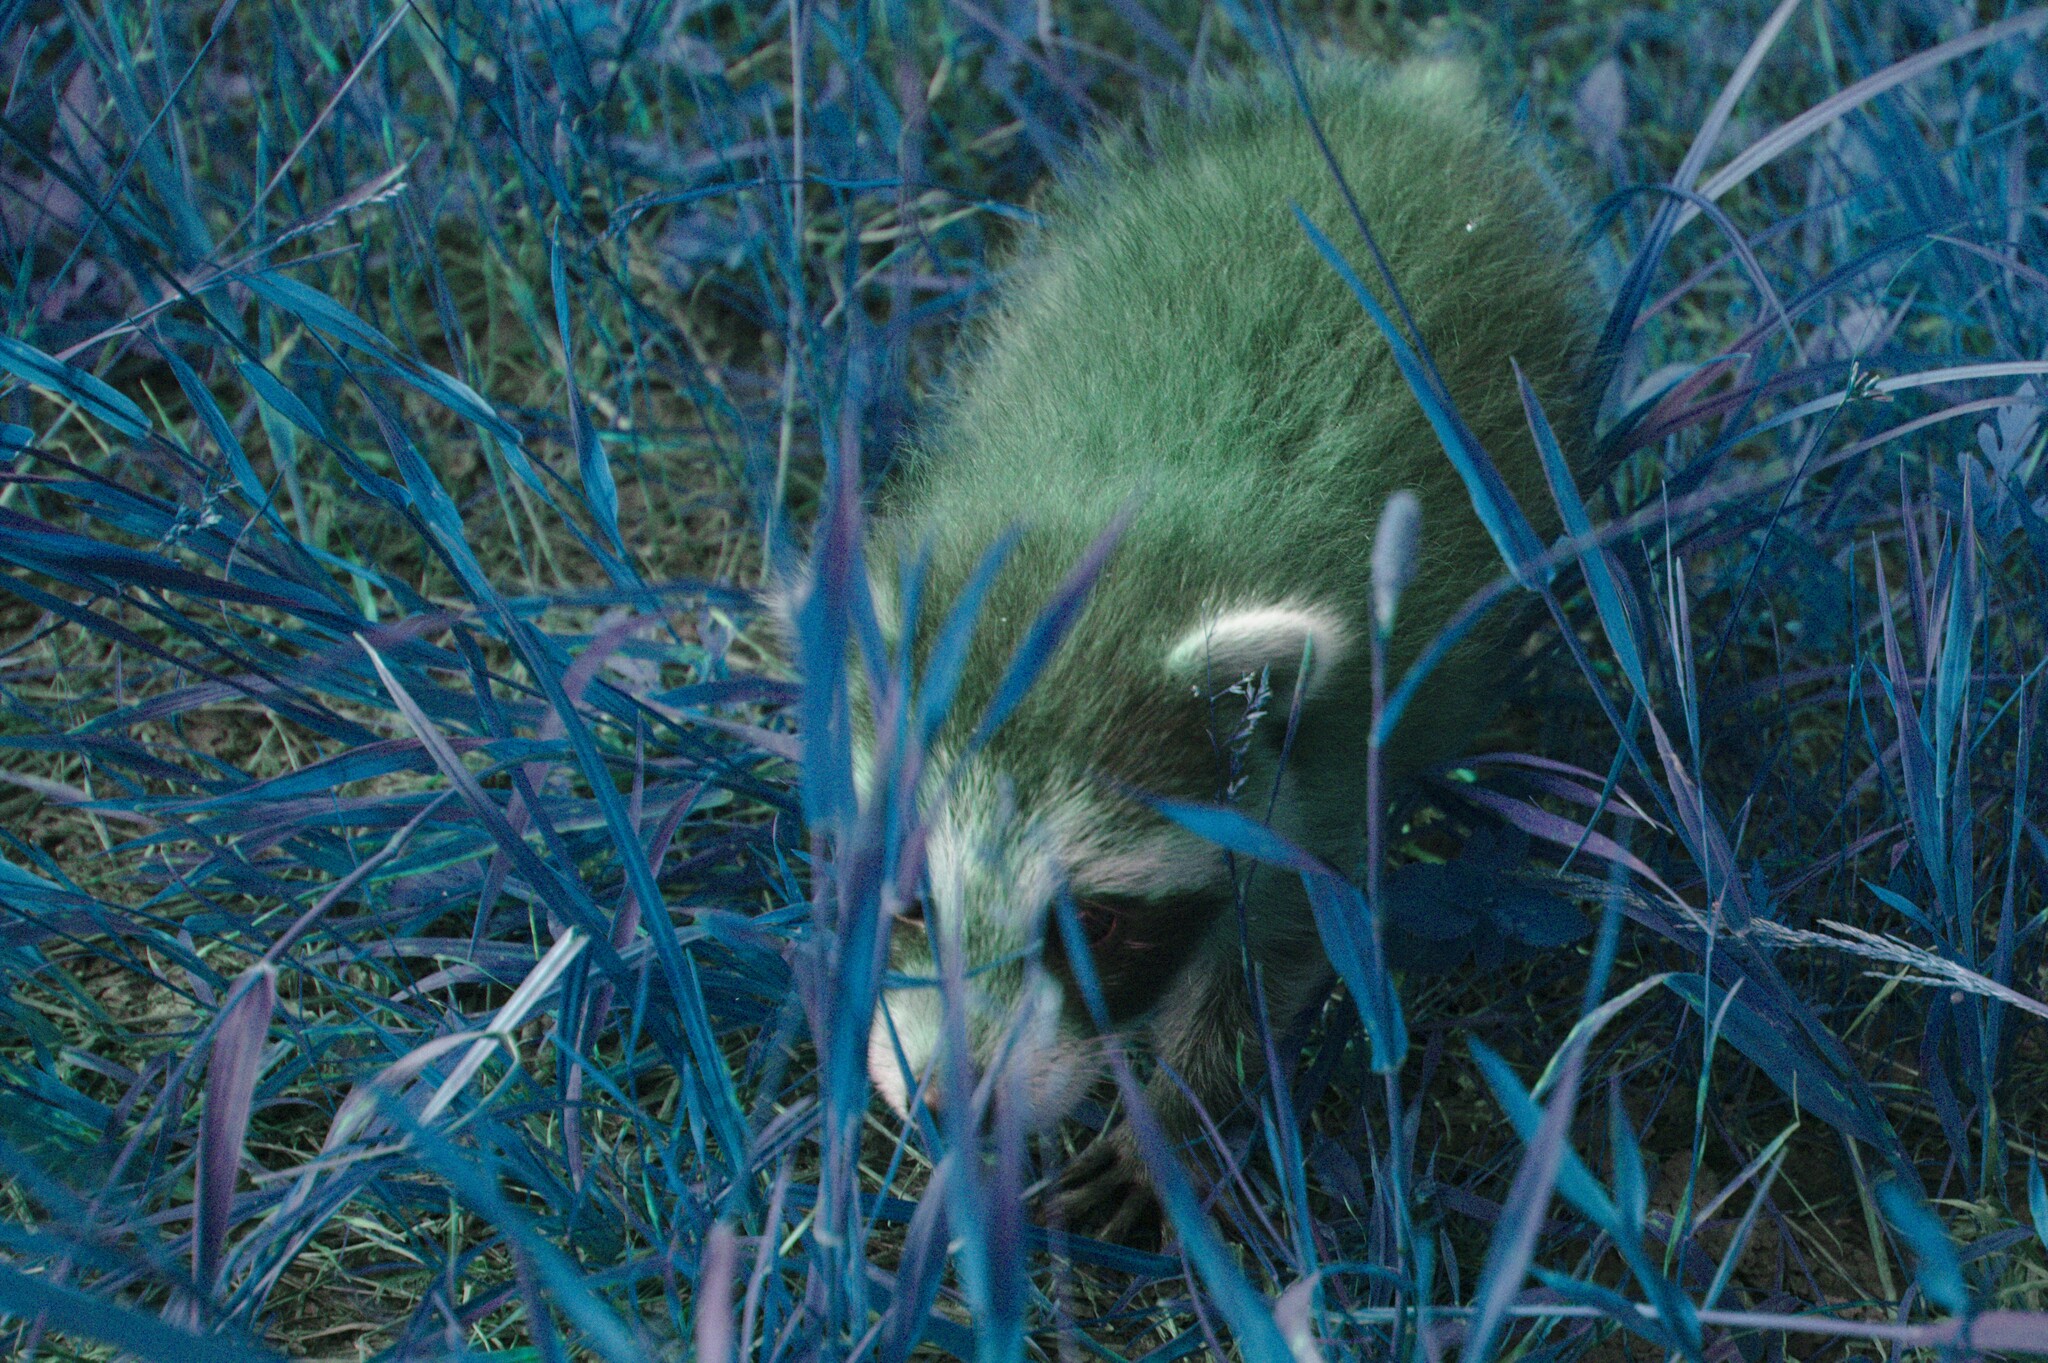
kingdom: Animalia
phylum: Chordata
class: Mammalia
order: Carnivora
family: Procyonidae
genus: Procyon
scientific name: Procyon lotor
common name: Raccoon
